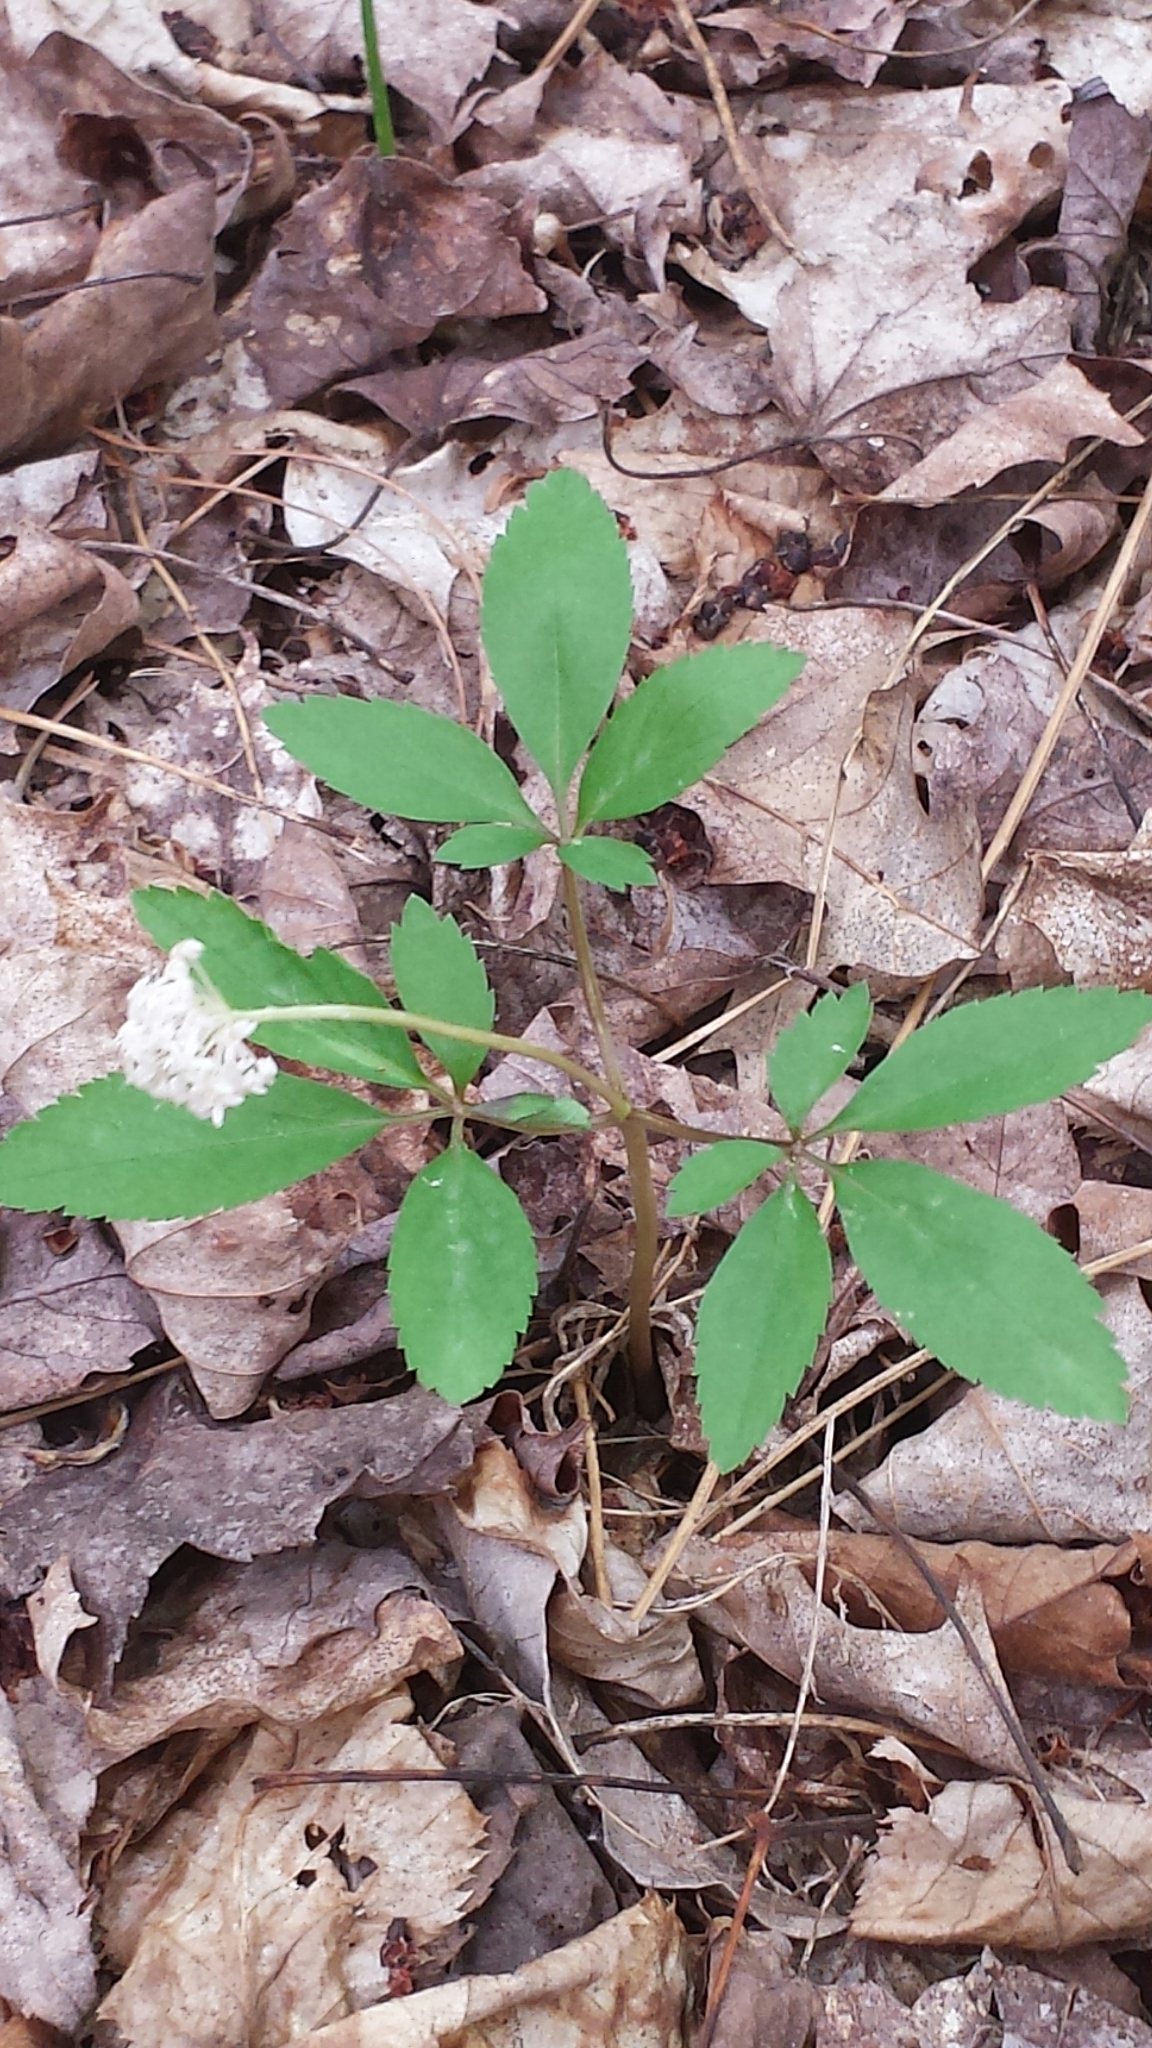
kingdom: Plantae
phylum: Tracheophyta
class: Magnoliopsida
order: Apiales
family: Araliaceae
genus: Panax
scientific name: Panax trifolius
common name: Dwarf ginseng
